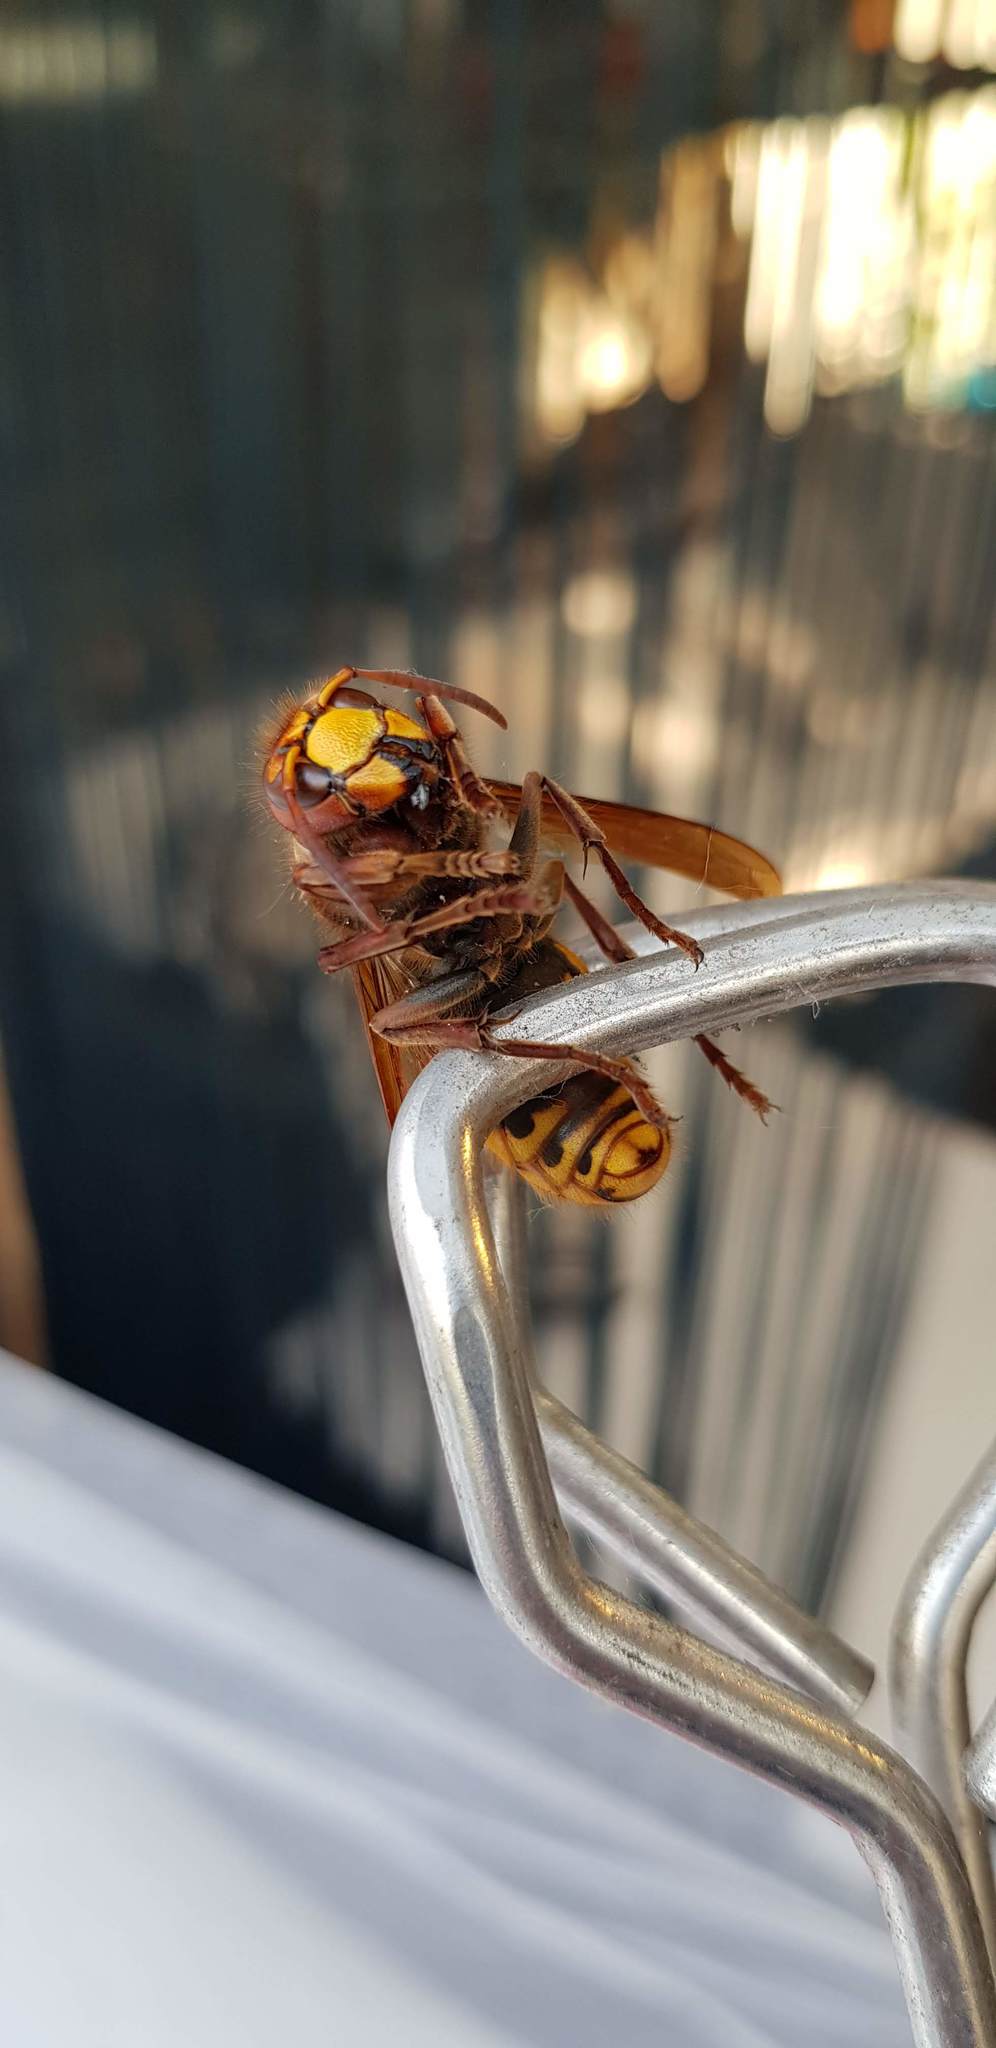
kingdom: Animalia
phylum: Arthropoda
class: Insecta
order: Hymenoptera
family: Vespidae
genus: Vespa
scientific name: Vespa crabro
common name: Hornet
